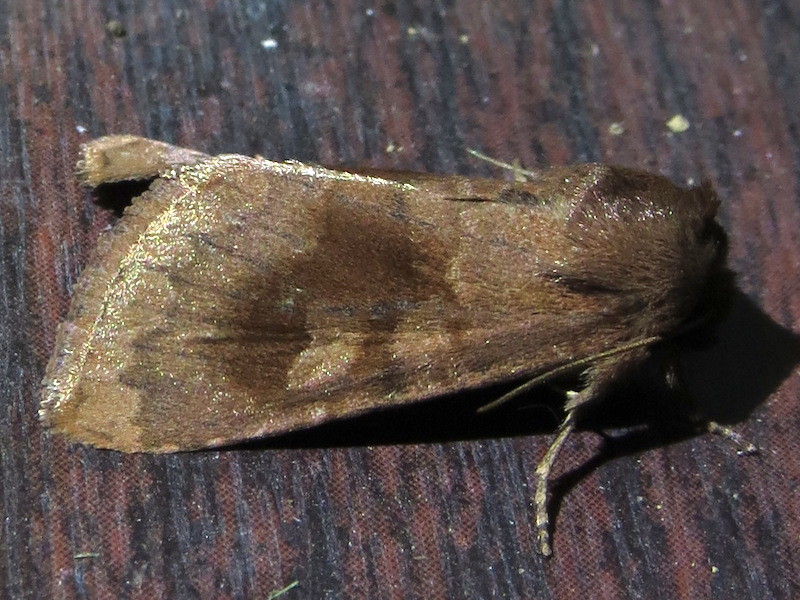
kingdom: Animalia
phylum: Arthropoda
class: Insecta
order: Lepidoptera
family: Noctuidae
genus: Nephelodes
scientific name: Nephelodes minians
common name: Bronzed cutworm
